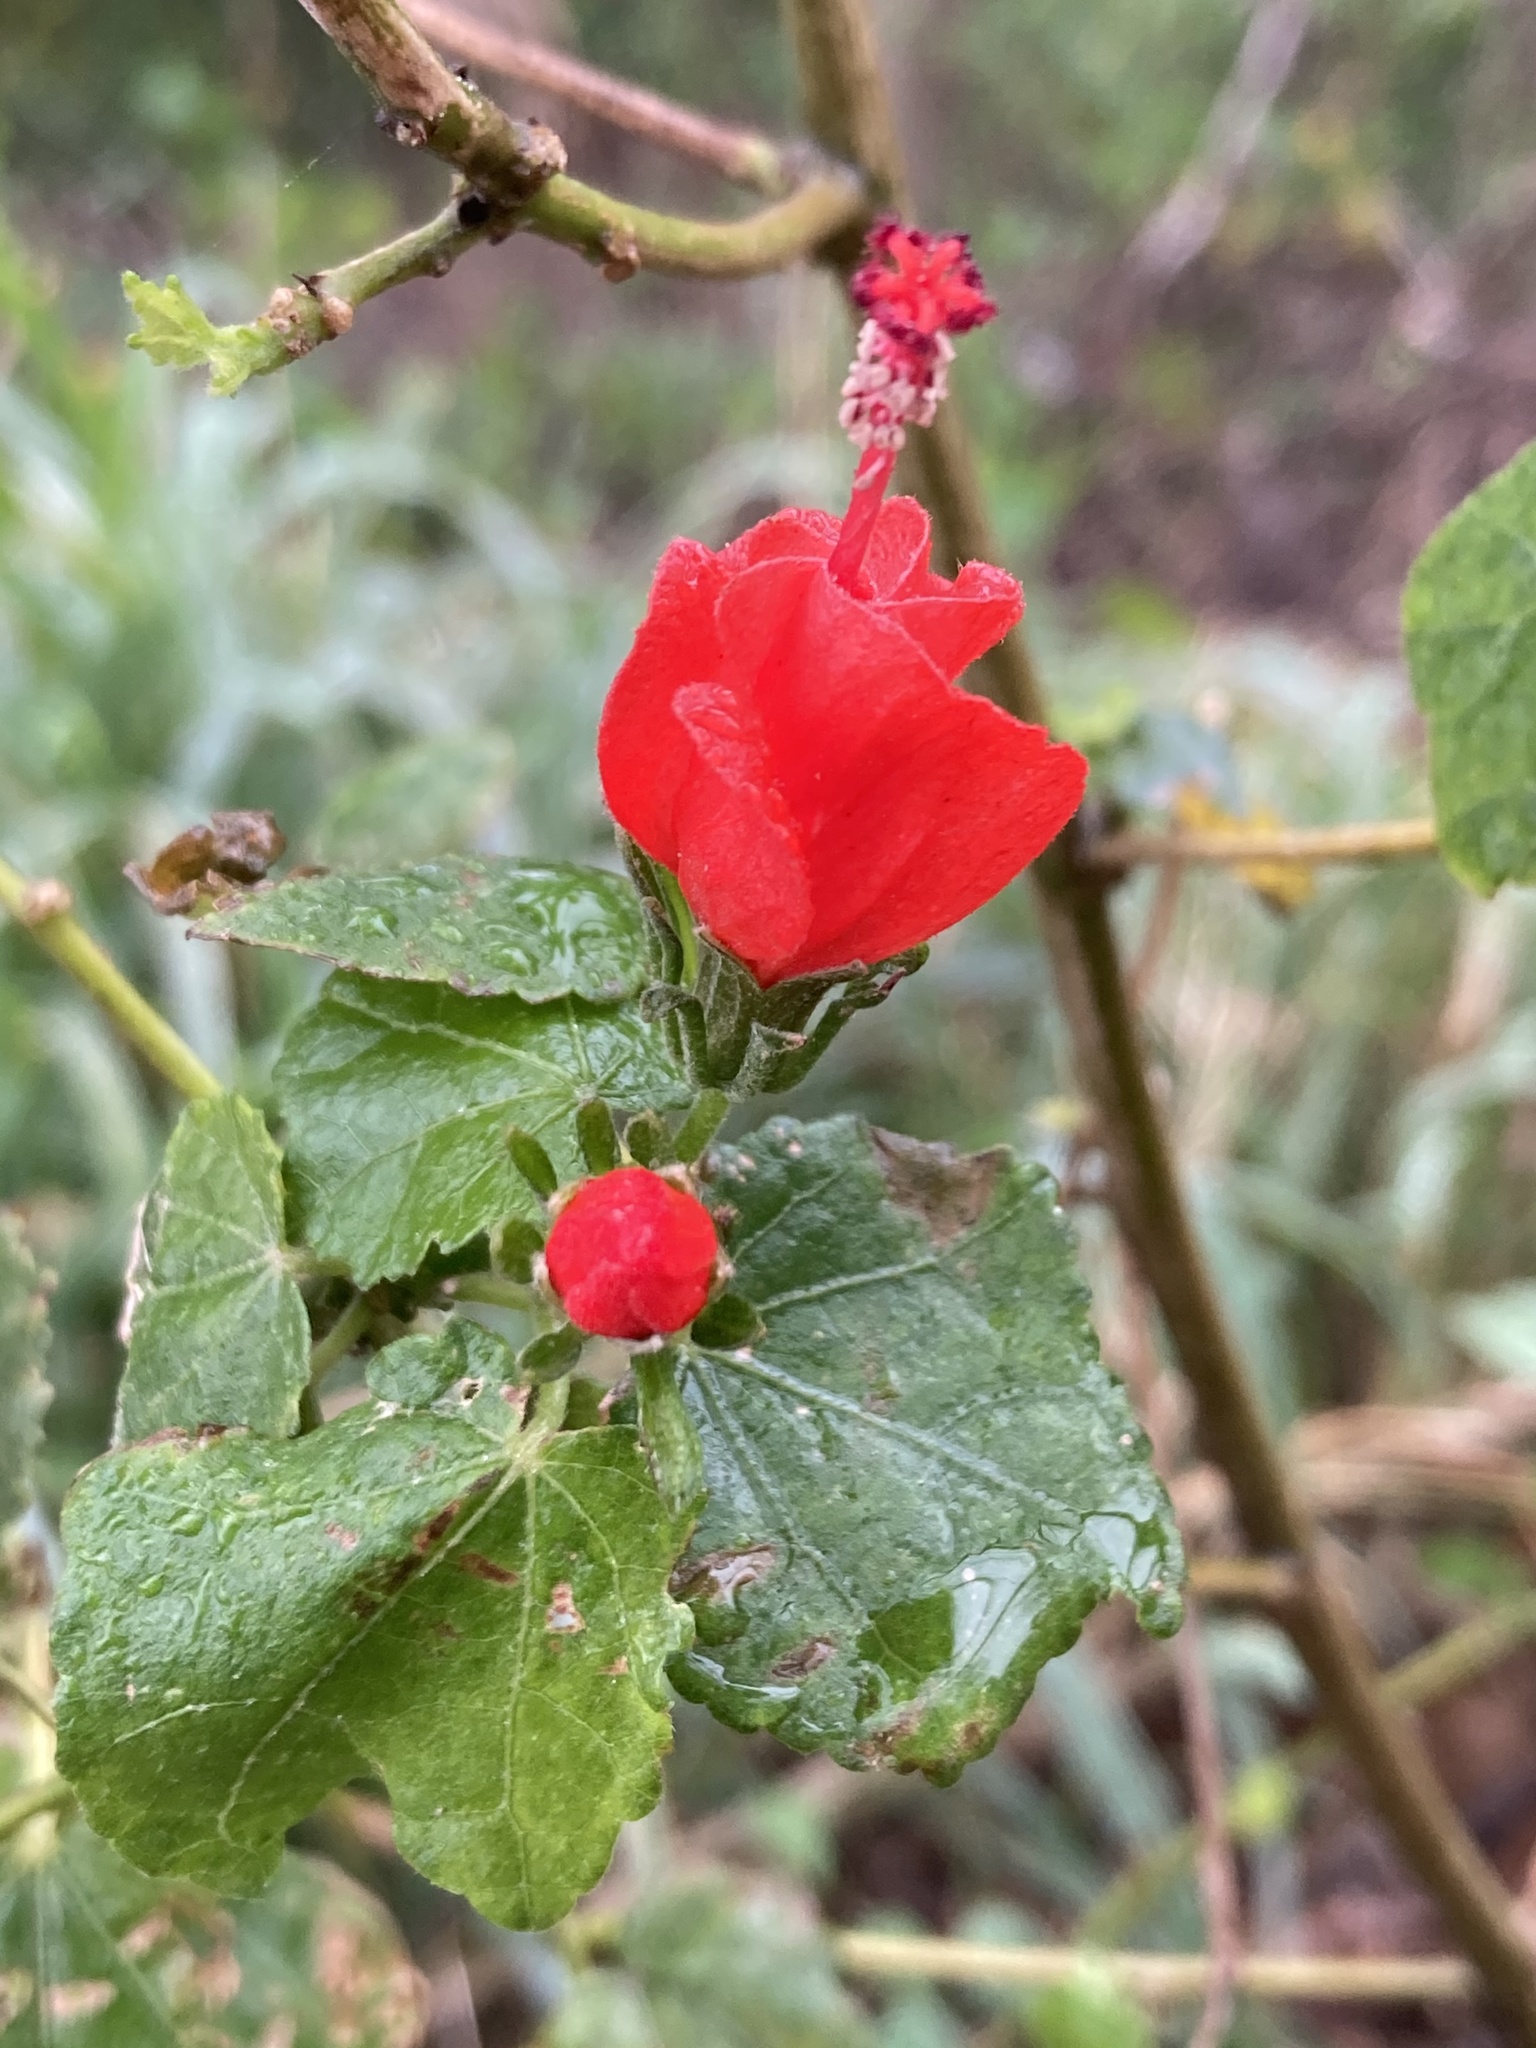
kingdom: Plantae
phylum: Tracheophyta
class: Magnoliopsida
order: Malvales
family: Malvaceae
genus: Malvaviscus
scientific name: Malvaviscus arboreus
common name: Wax mallow
